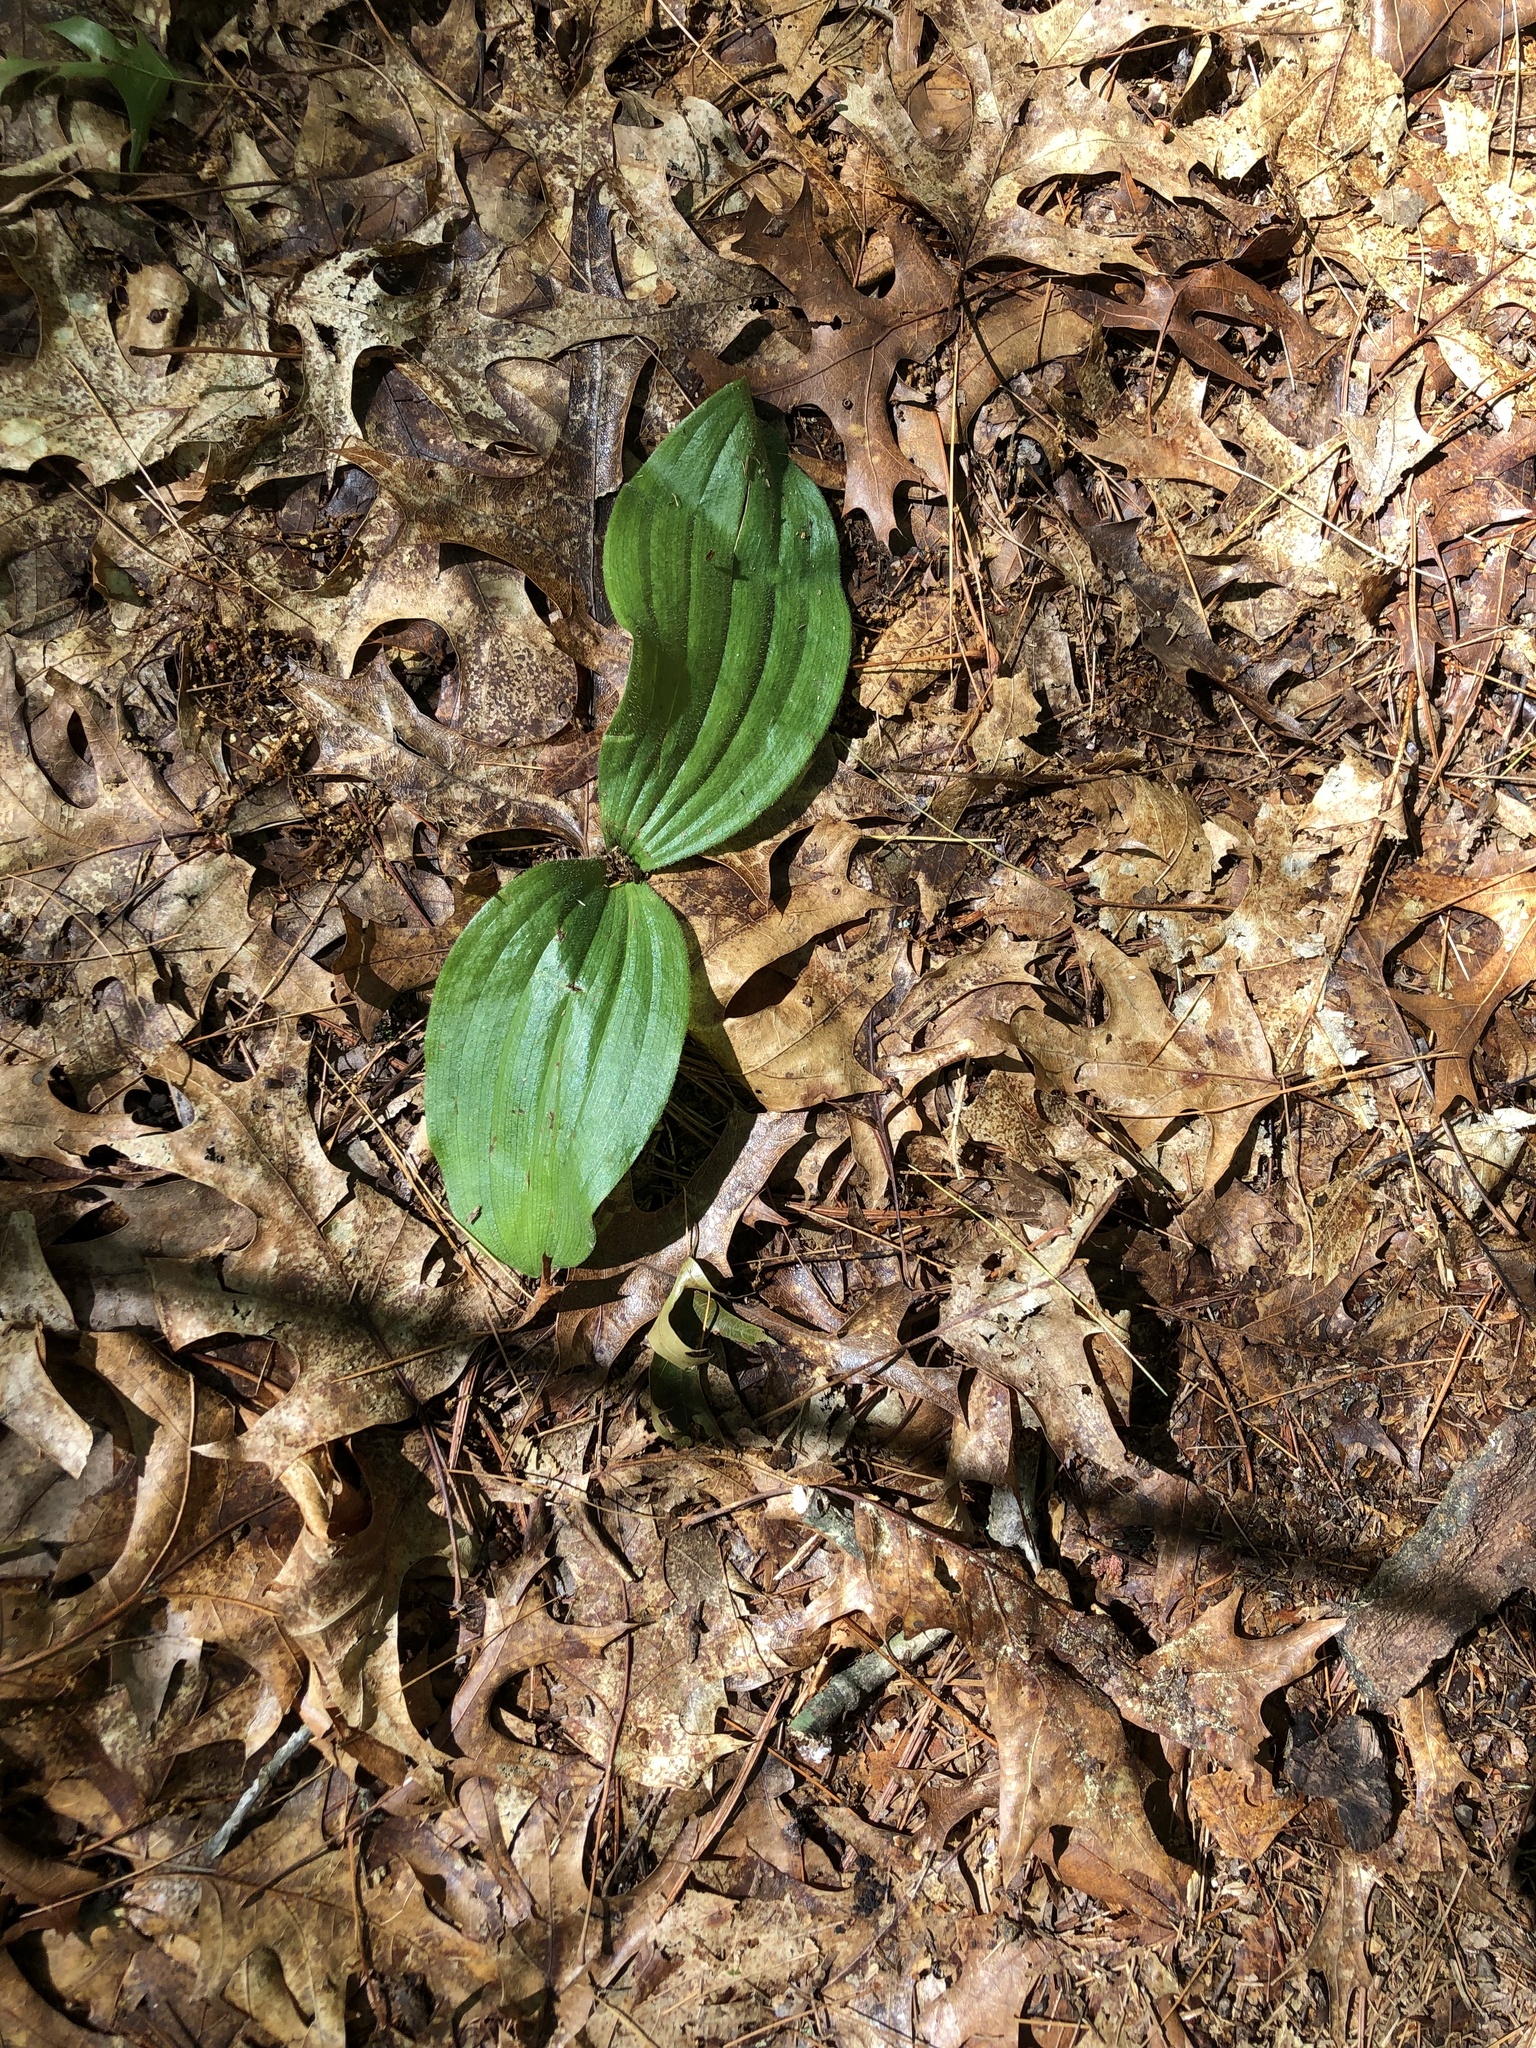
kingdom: Plantae
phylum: Tracheophyta
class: Liliopsida
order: Asparagales
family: Orchidaceae
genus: Cypripedium
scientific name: Cypripedium acaule
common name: Pink lady's-slipper
